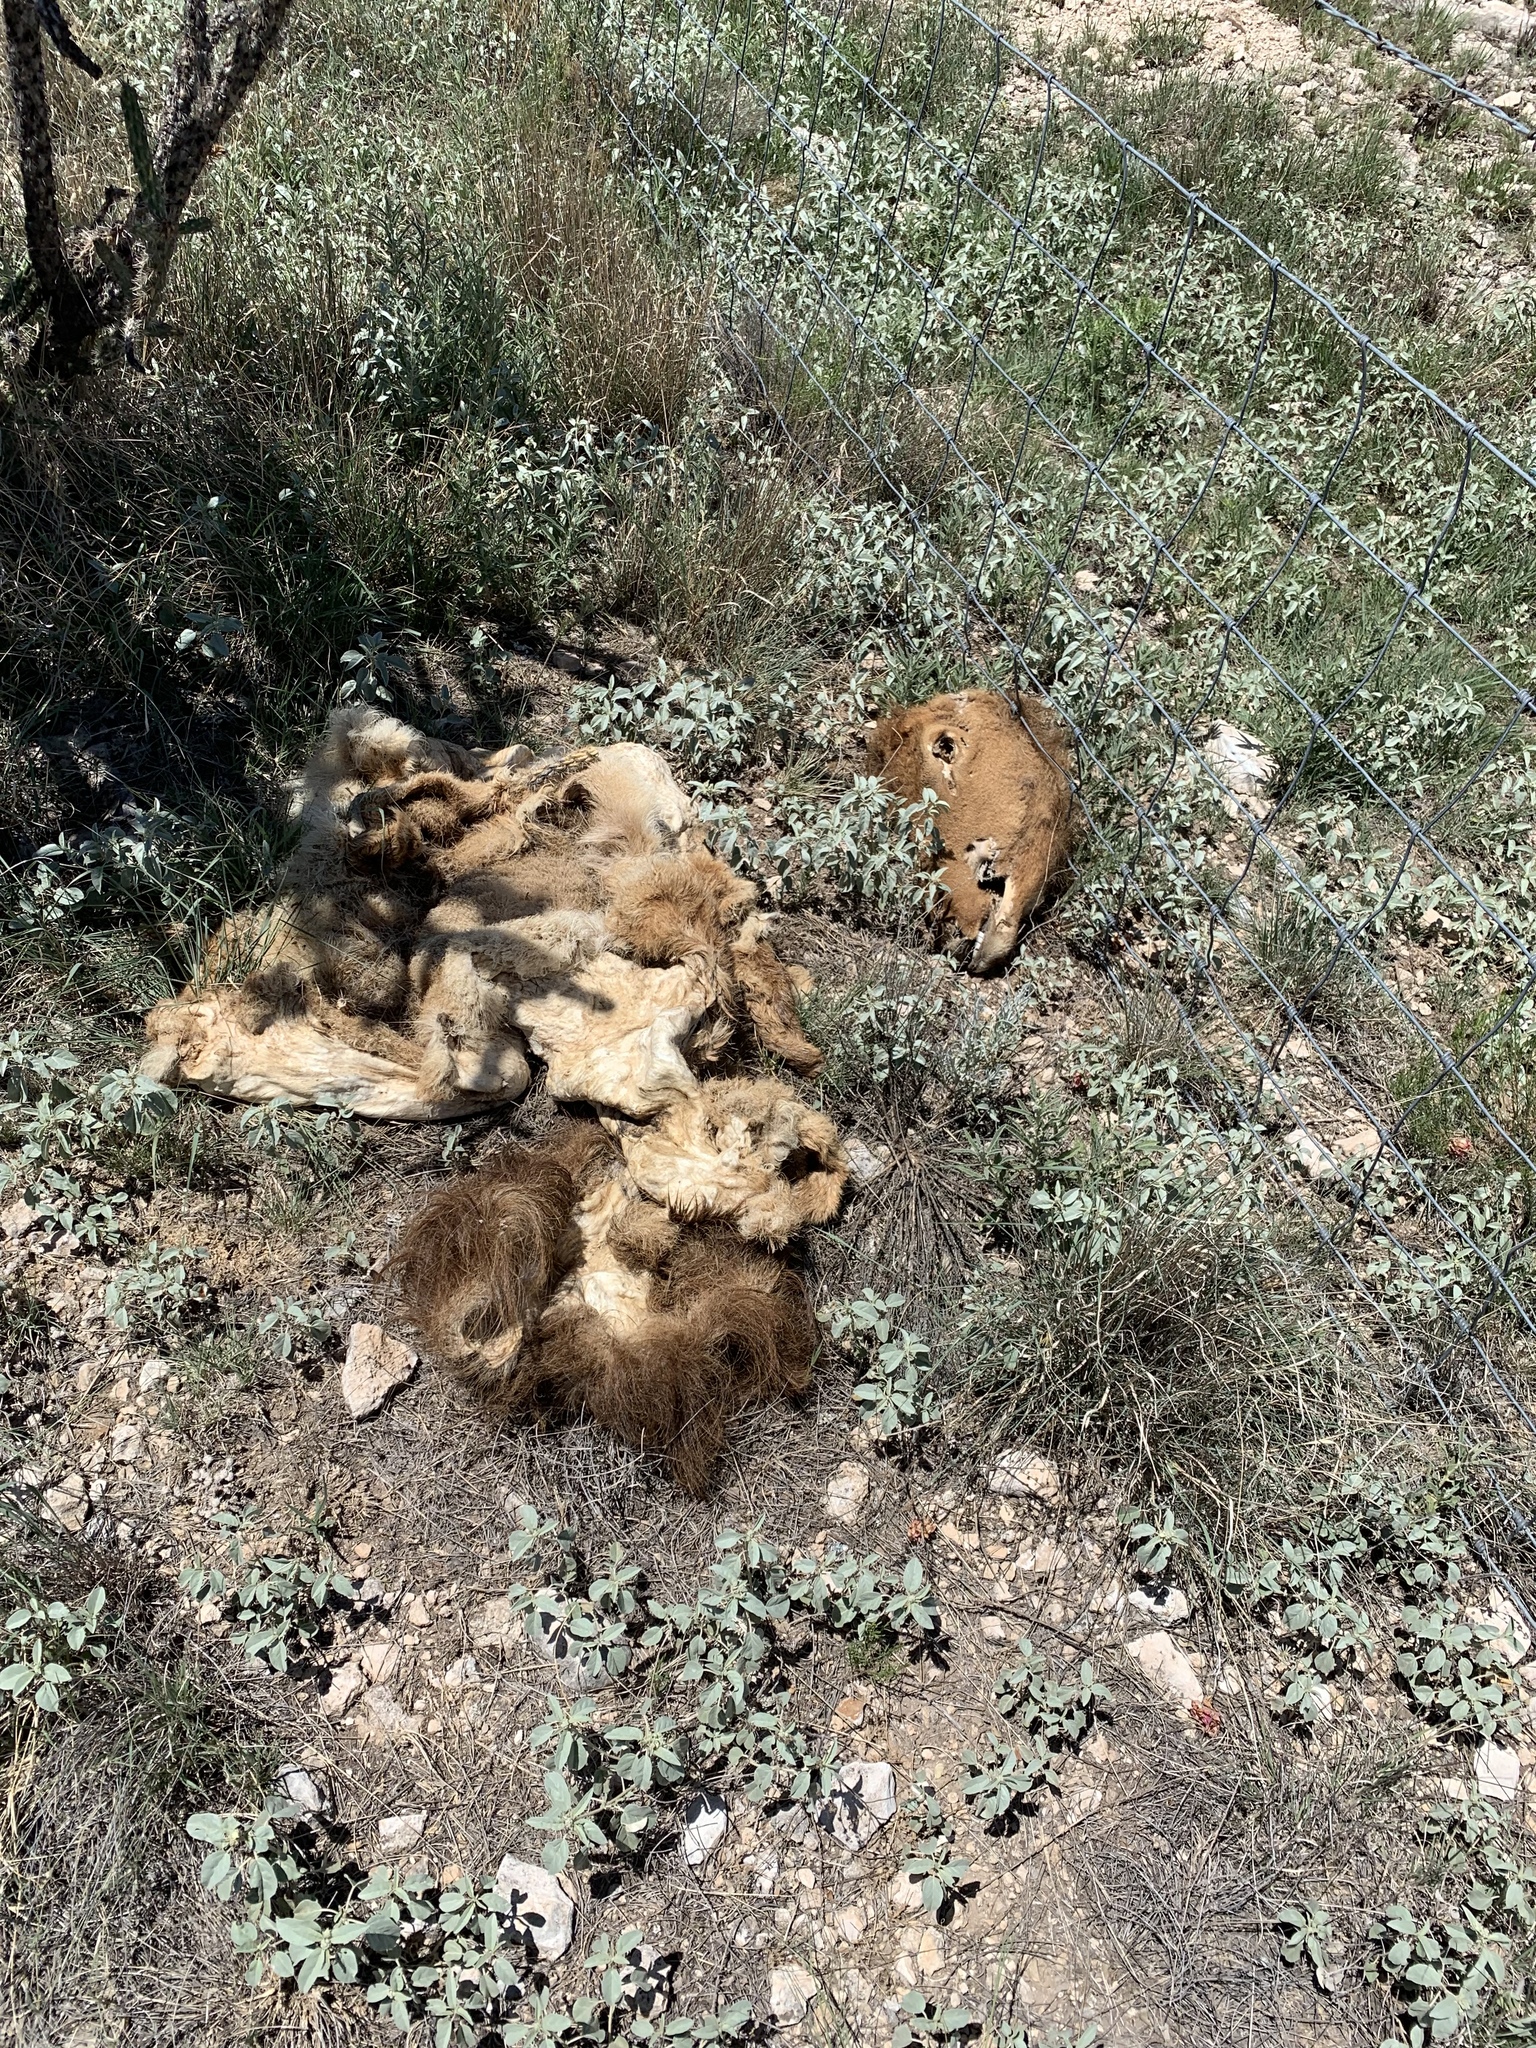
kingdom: Animalia
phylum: Chordata
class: Mammalia
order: Artiodactyla
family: Cervidae
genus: Cervus
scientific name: Cervus elaphus
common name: Red deer
